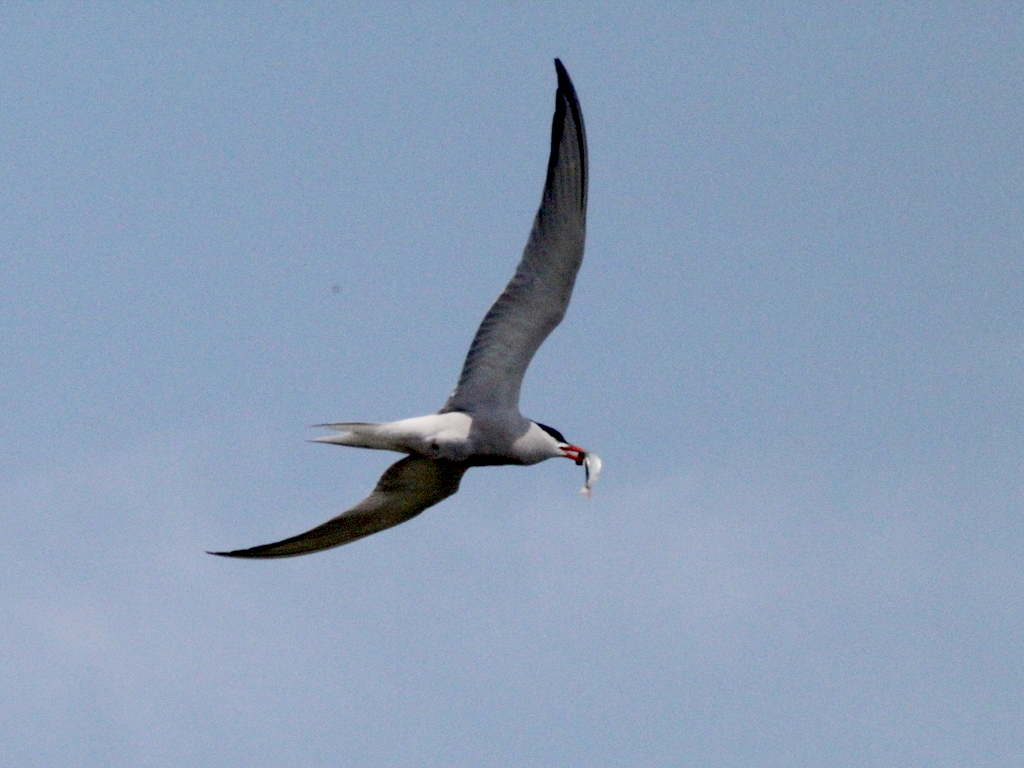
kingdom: Animalia
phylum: Chordata
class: Aves
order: Charadriiformes
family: Laridae
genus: Sterna
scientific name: Sterna hirundo
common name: Common tern
